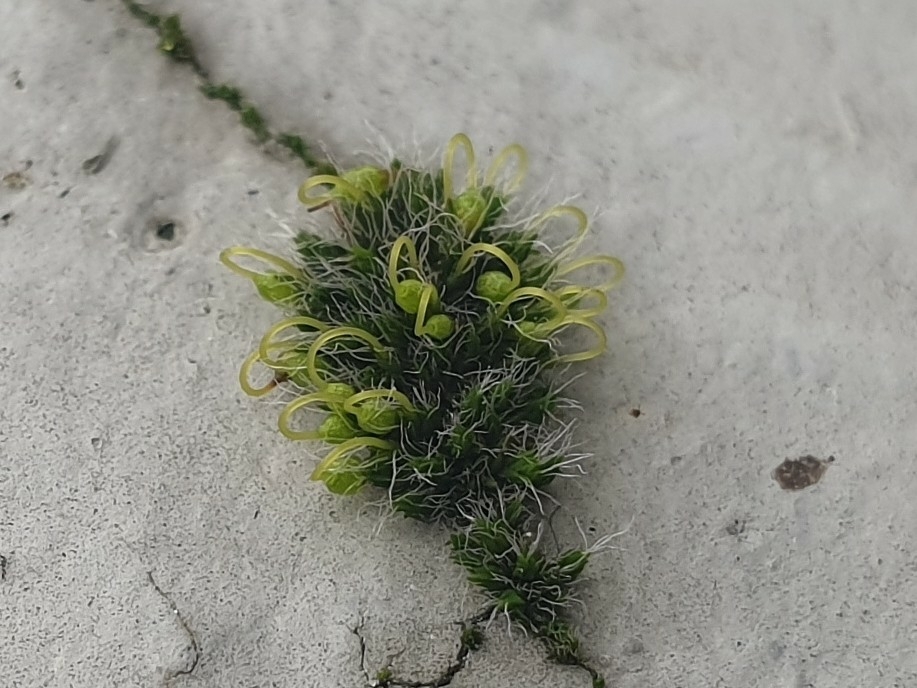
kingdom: Plantae
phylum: Bryophyta
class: Bryopsida
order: Grimmiales
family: Grimmiaceae
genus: Grimmia
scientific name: Grimmia pulvinata
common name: Grey-cushioned grimmia
